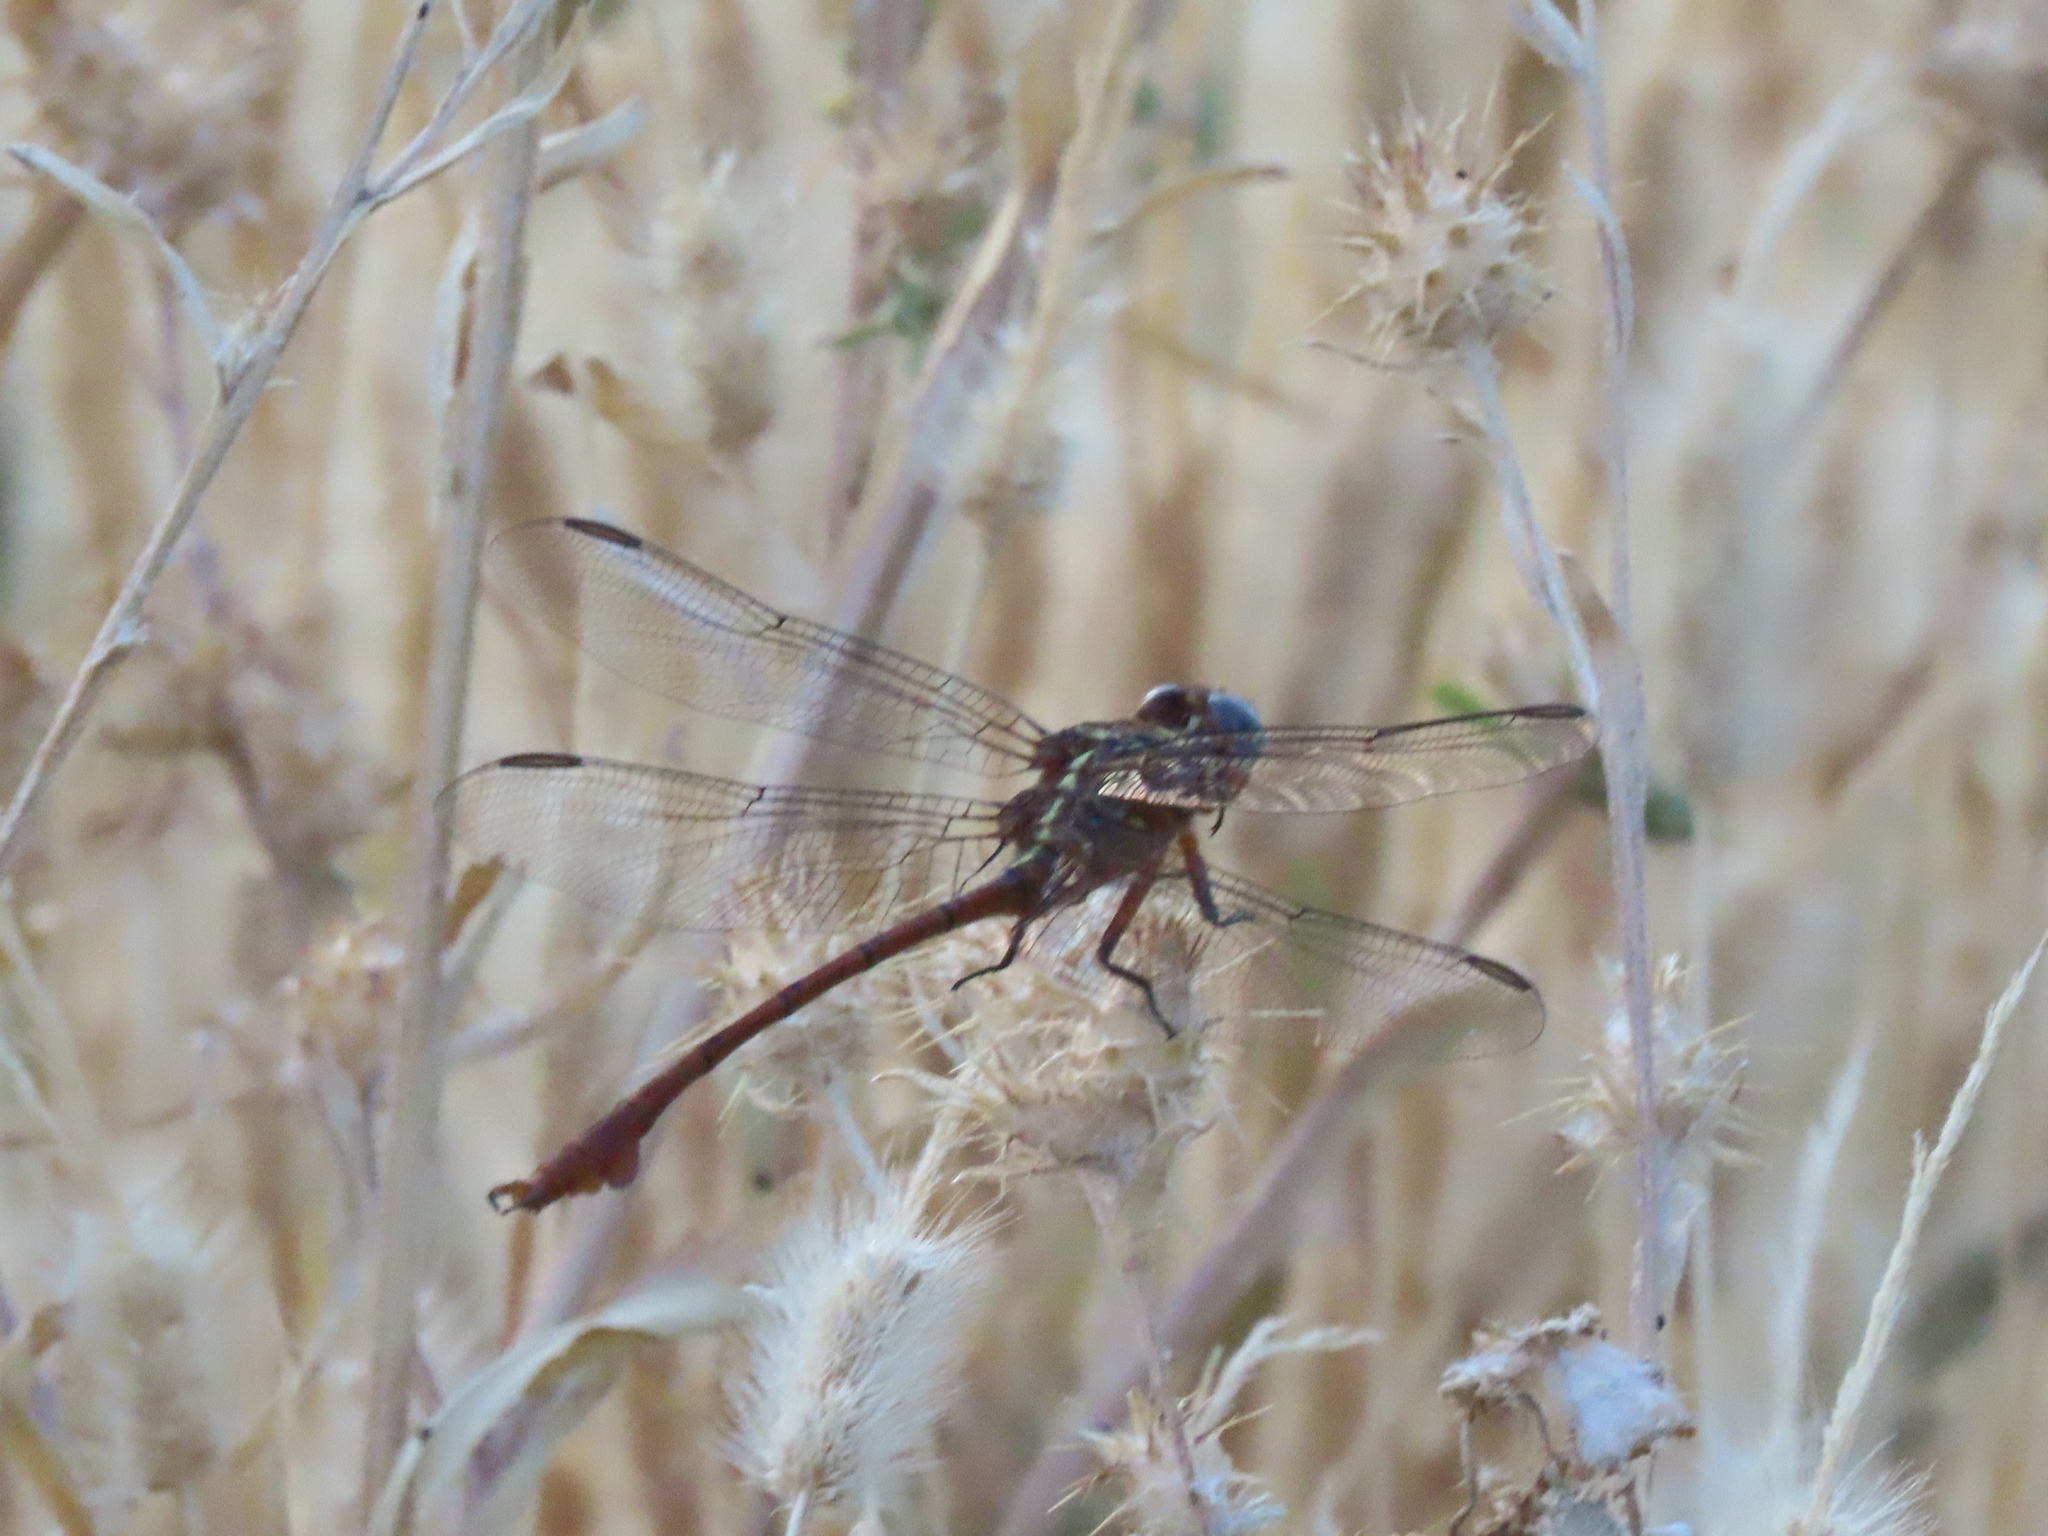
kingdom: Animalia
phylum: Arthropoda
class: Insecta
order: Odonata
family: Gomphidae
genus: Aphylla
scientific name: Aphylla protracta
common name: Narrow-striped forceptail
